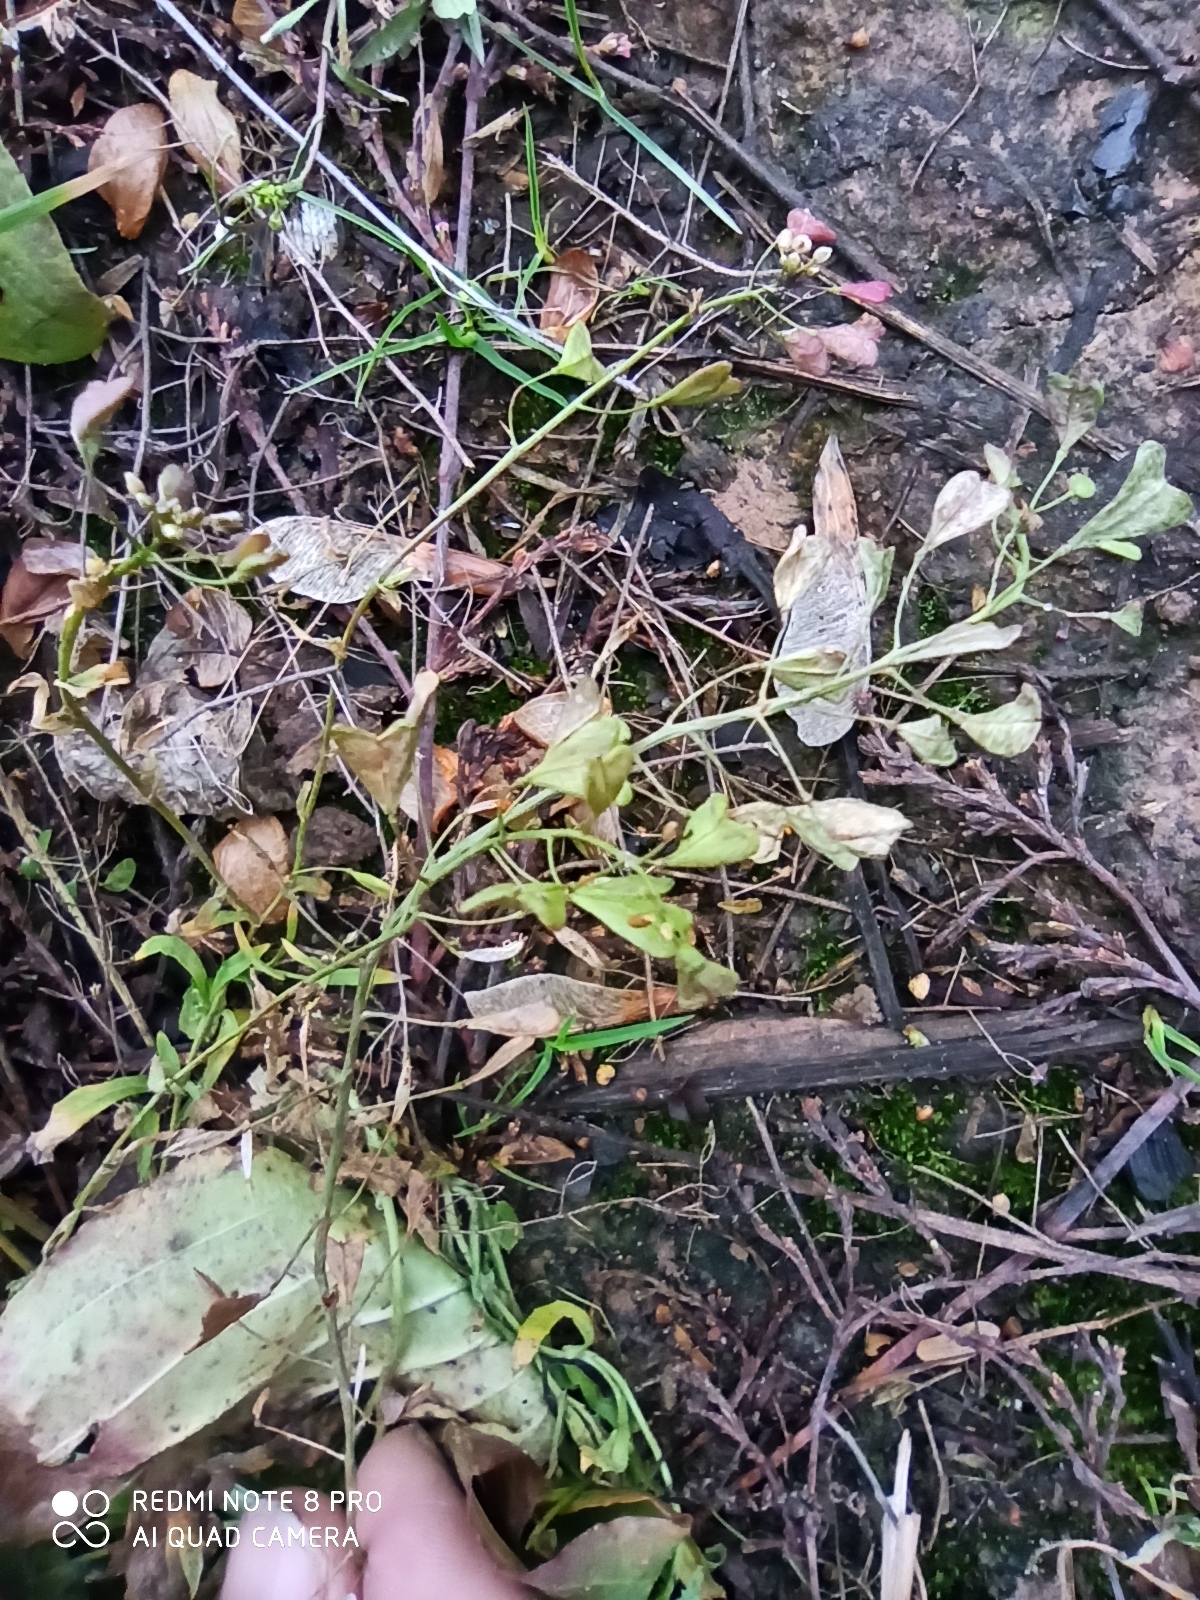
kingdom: Plantae
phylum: Tracheophyta
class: Magnoliopsida
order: Brassicales
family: Brassicaceae
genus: Capsella
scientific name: Capsella bursa-pastoris
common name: Shepherd's purse
